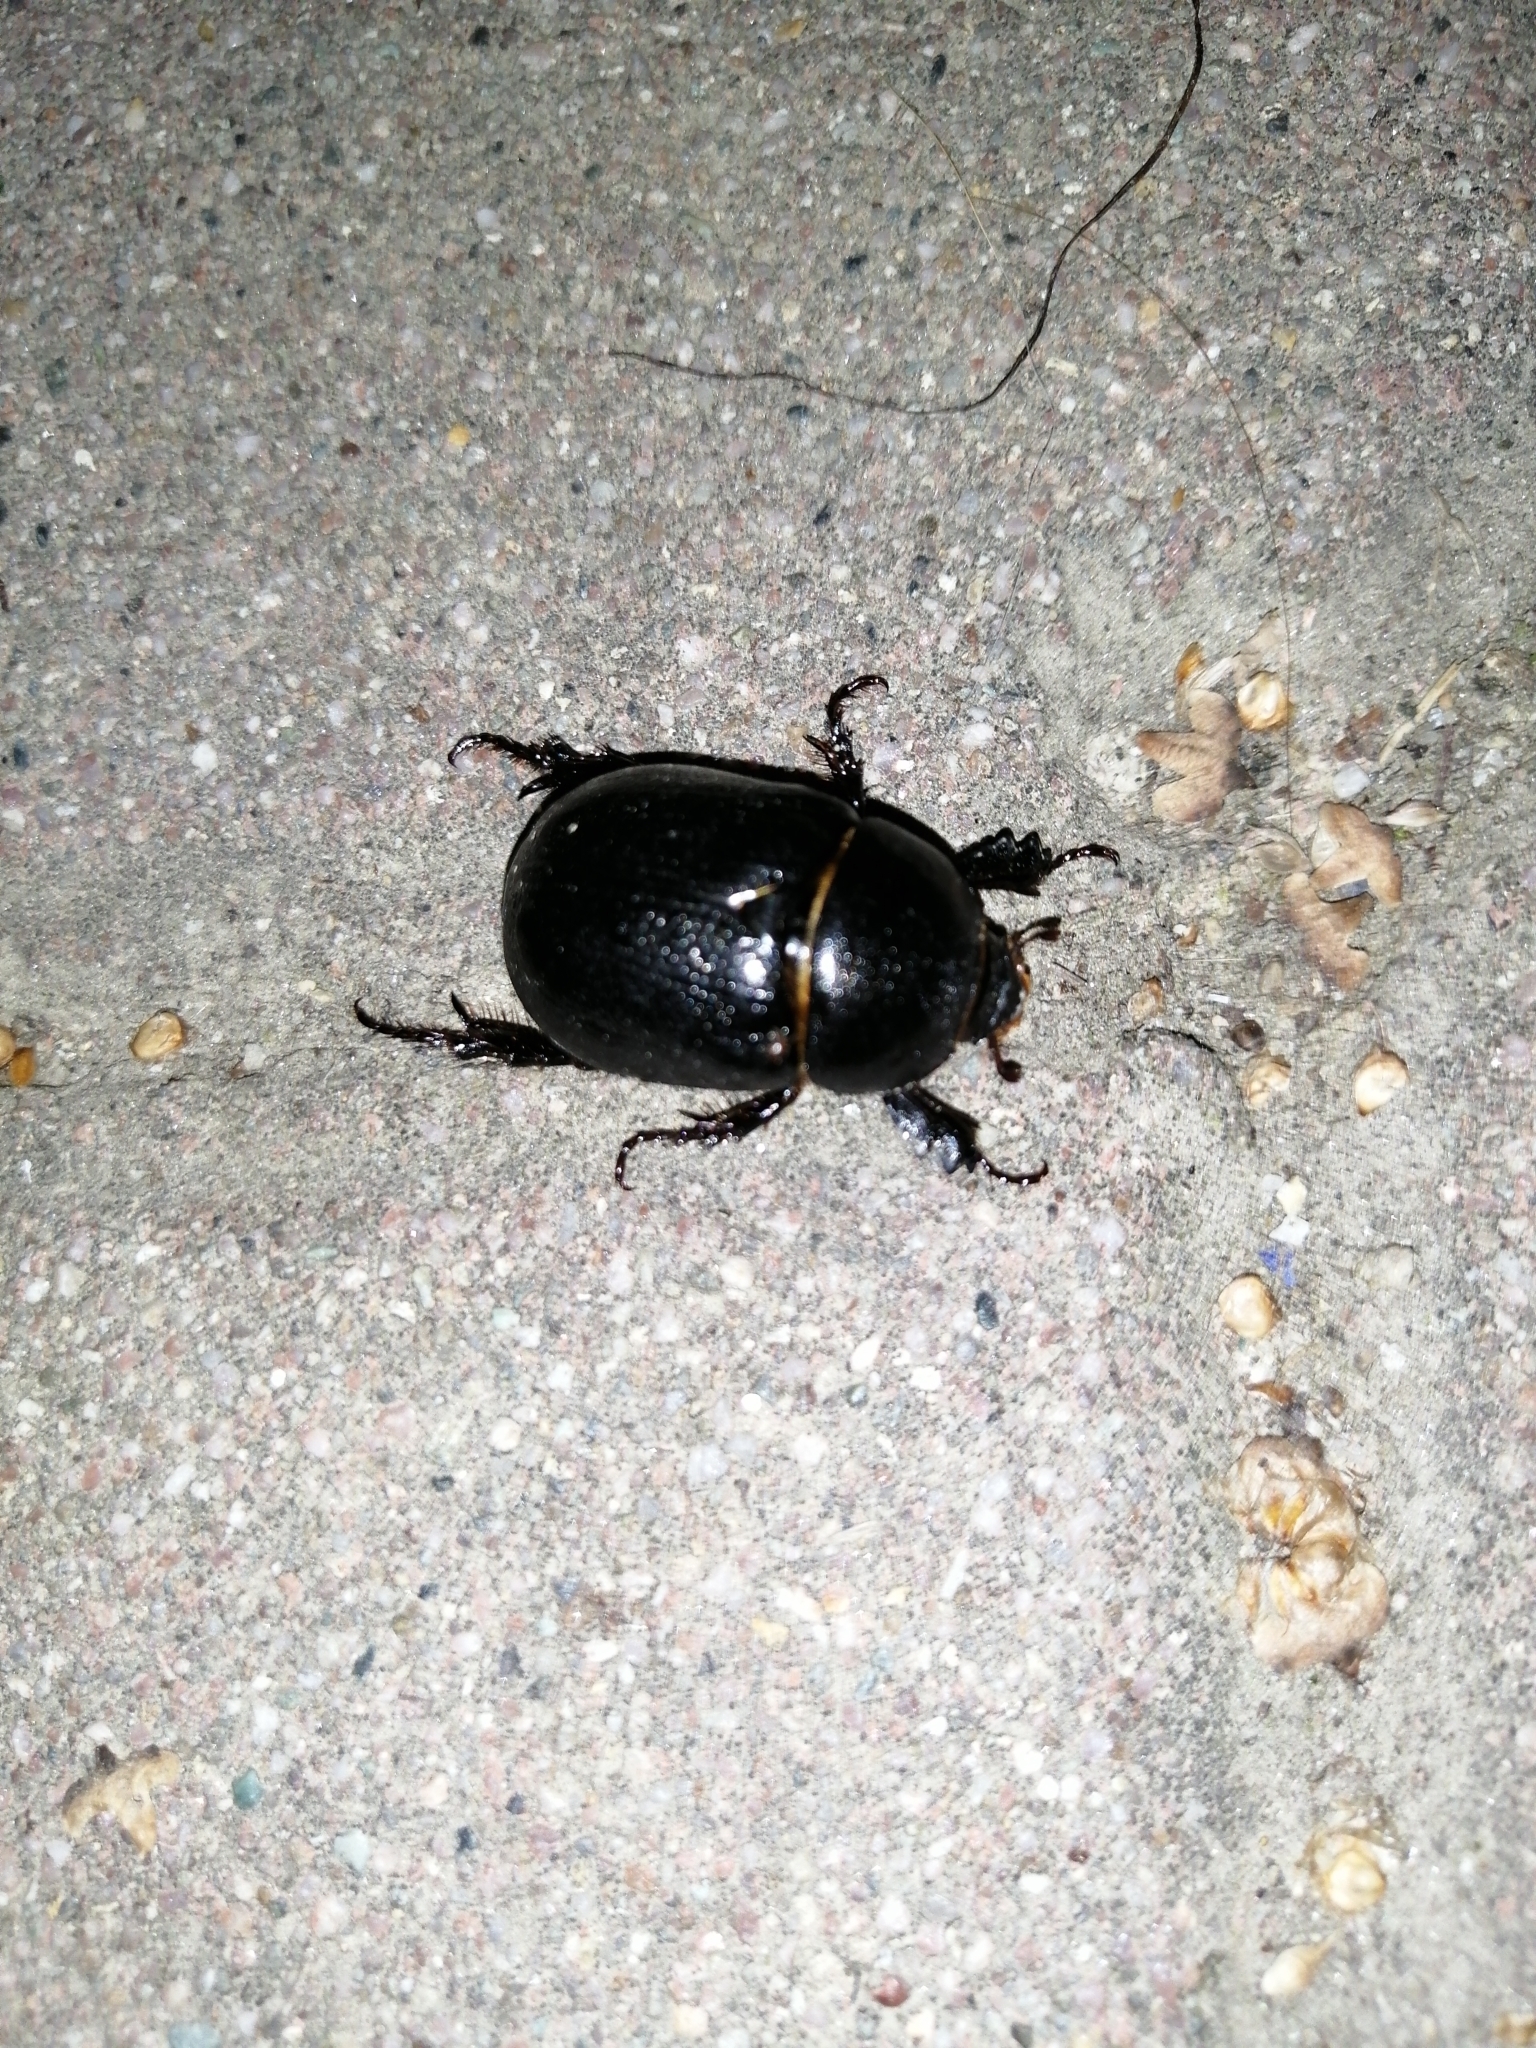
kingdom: Animalia
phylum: Arthropoda
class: Insecta
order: Coleoptera
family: Scarabaeidae
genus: Pentodon
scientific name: Pentodon bidens
